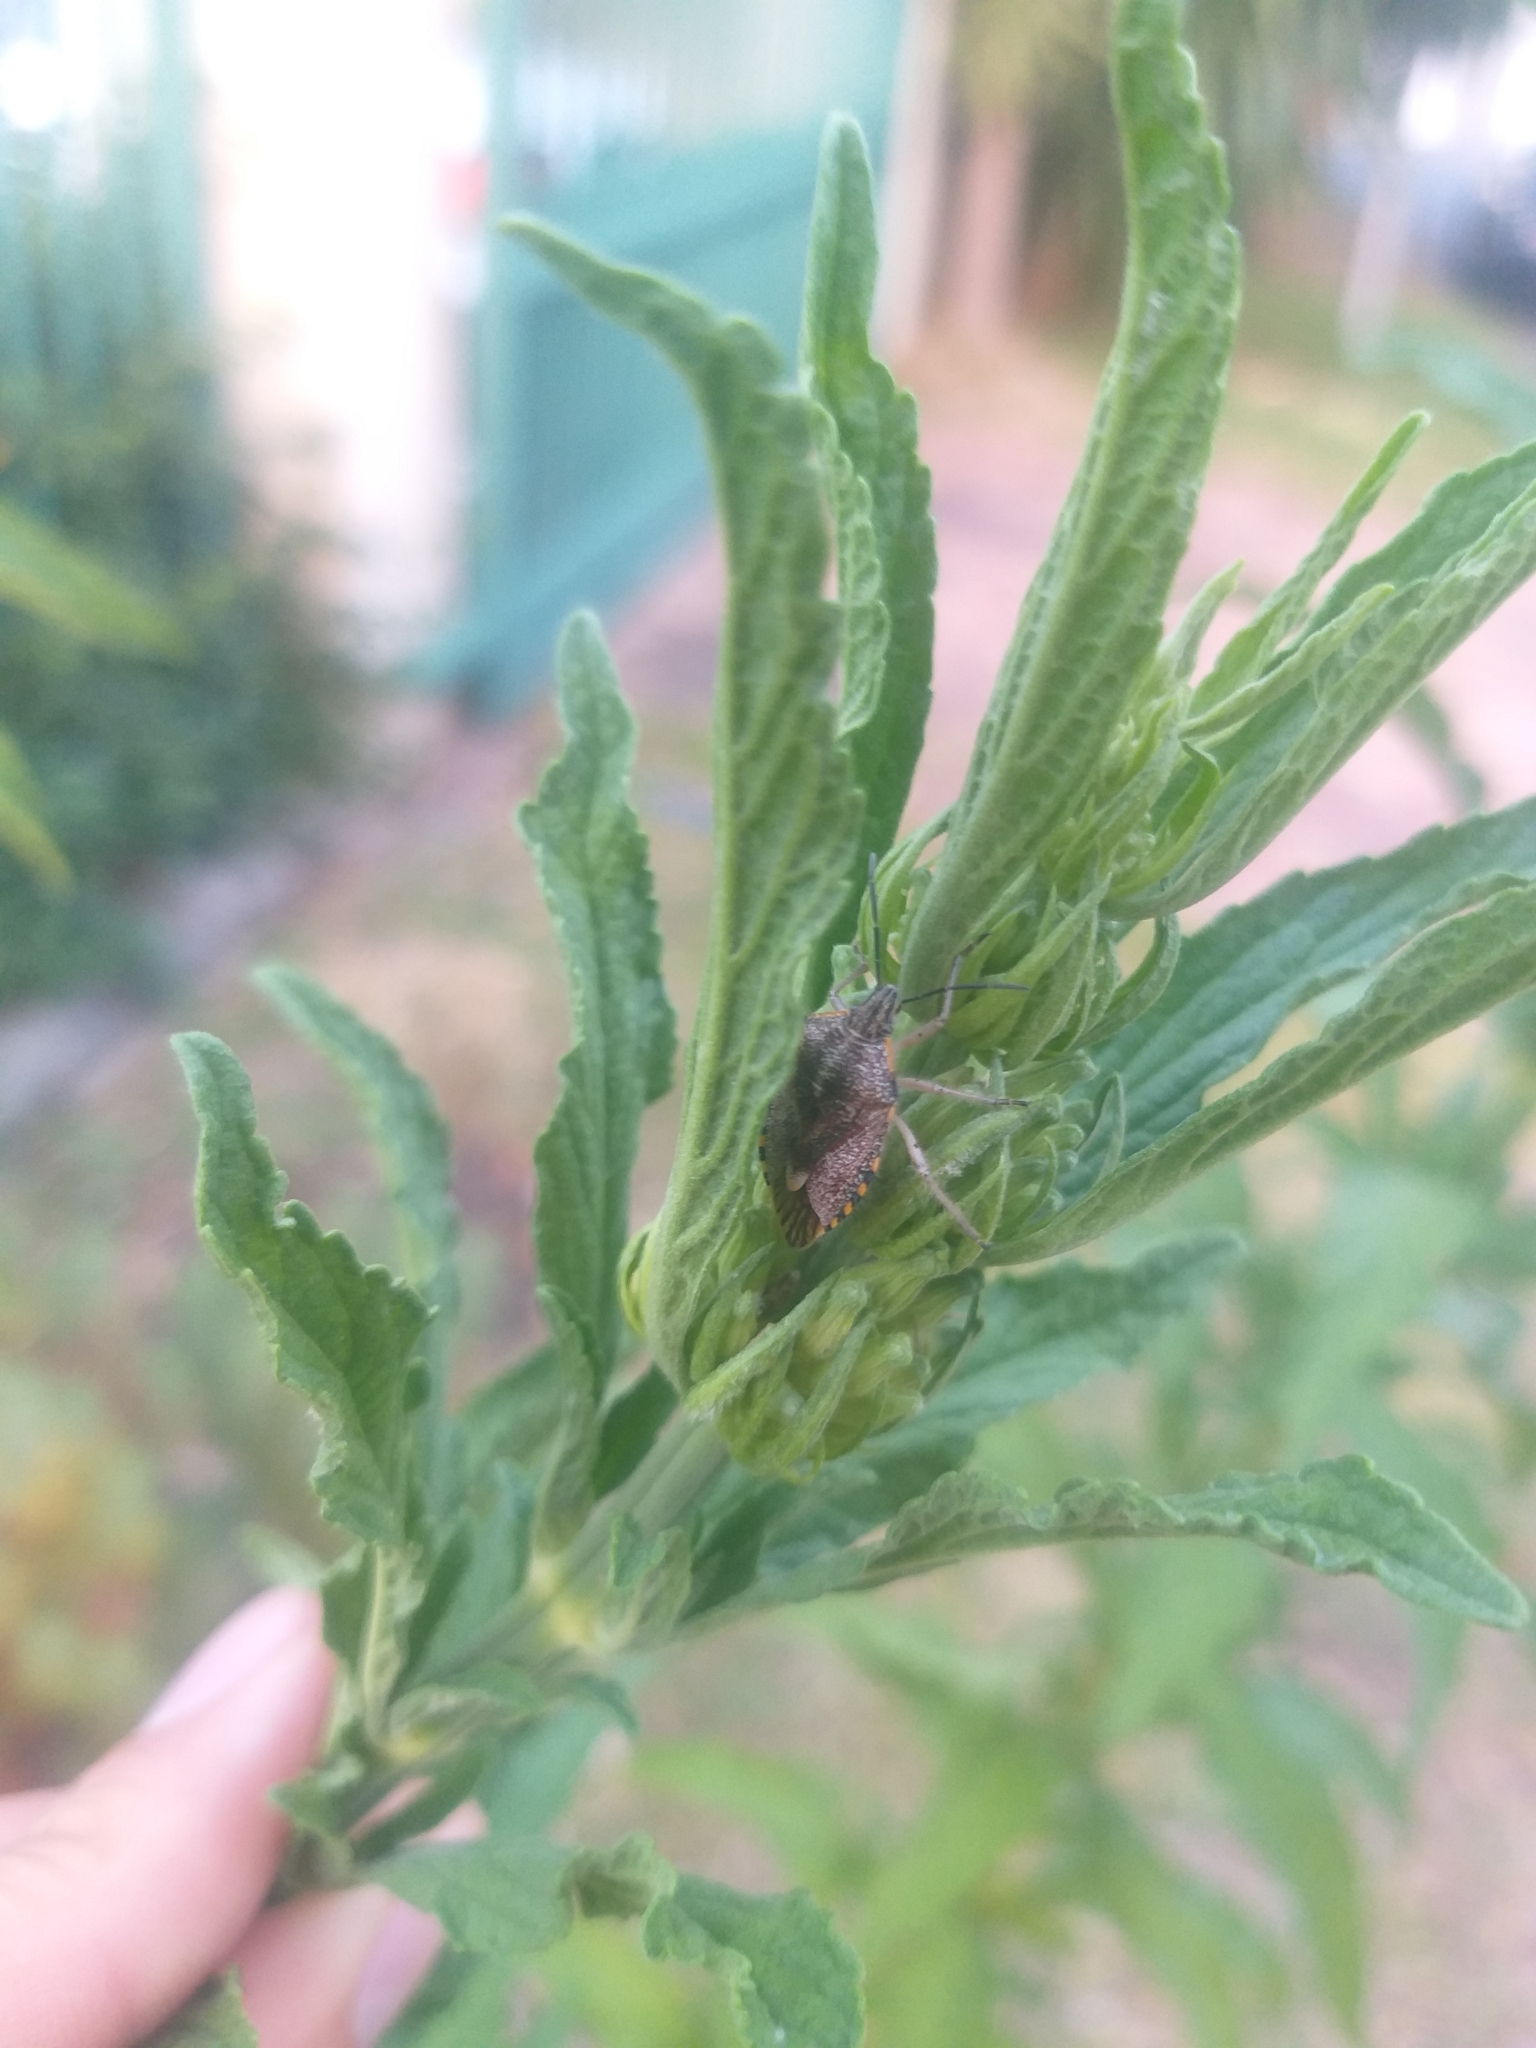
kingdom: Animalia
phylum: Arthropoda
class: Insecta
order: Hemiptera
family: Pentatomidae
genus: Agonoscelis
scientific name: Agonoscelis versicoloratus
